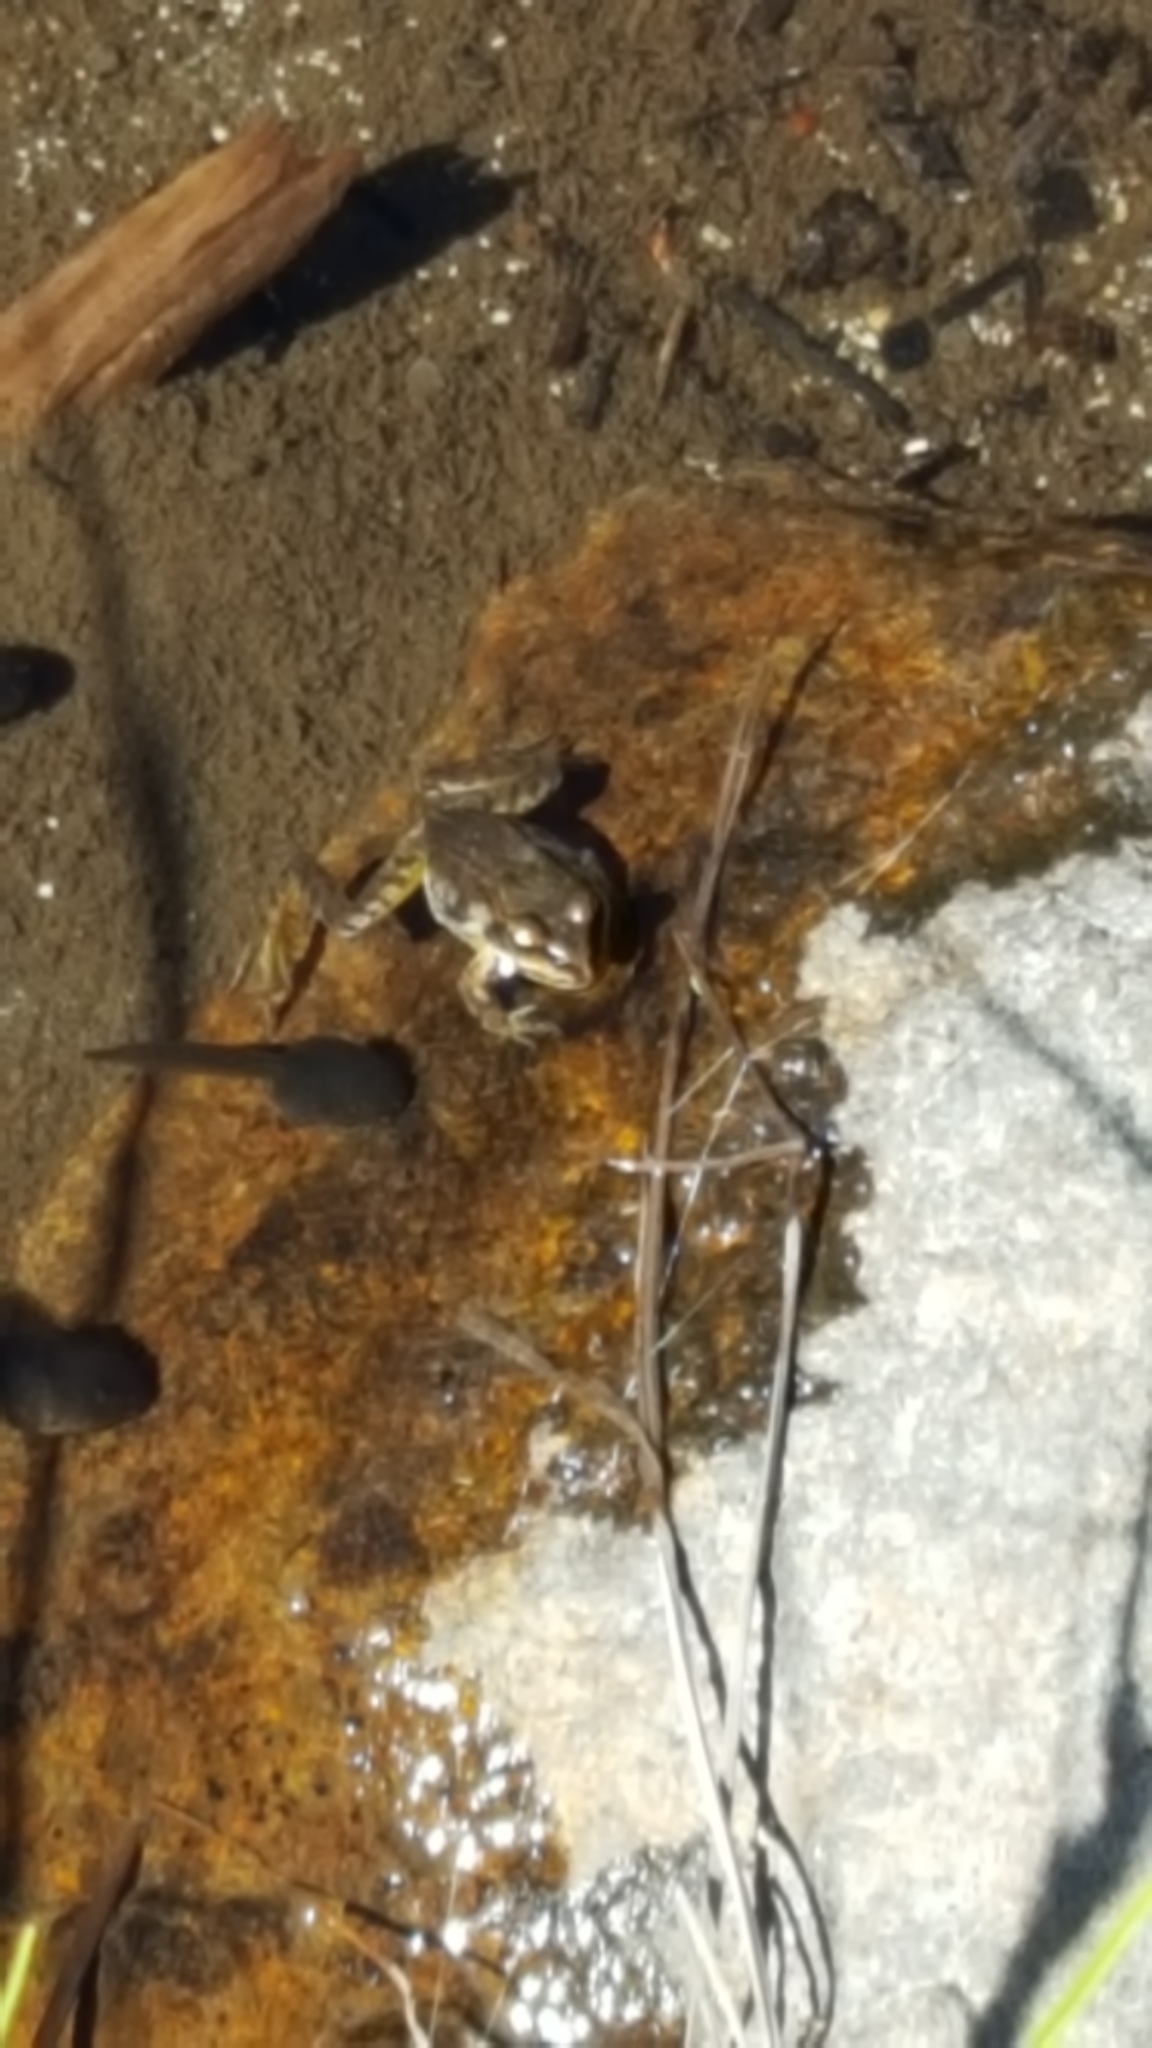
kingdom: Animalia
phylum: Chordata
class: Amphibia
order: Anura
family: Ranidae
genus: Rana
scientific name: Rana cascadae
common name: Cascades frog
